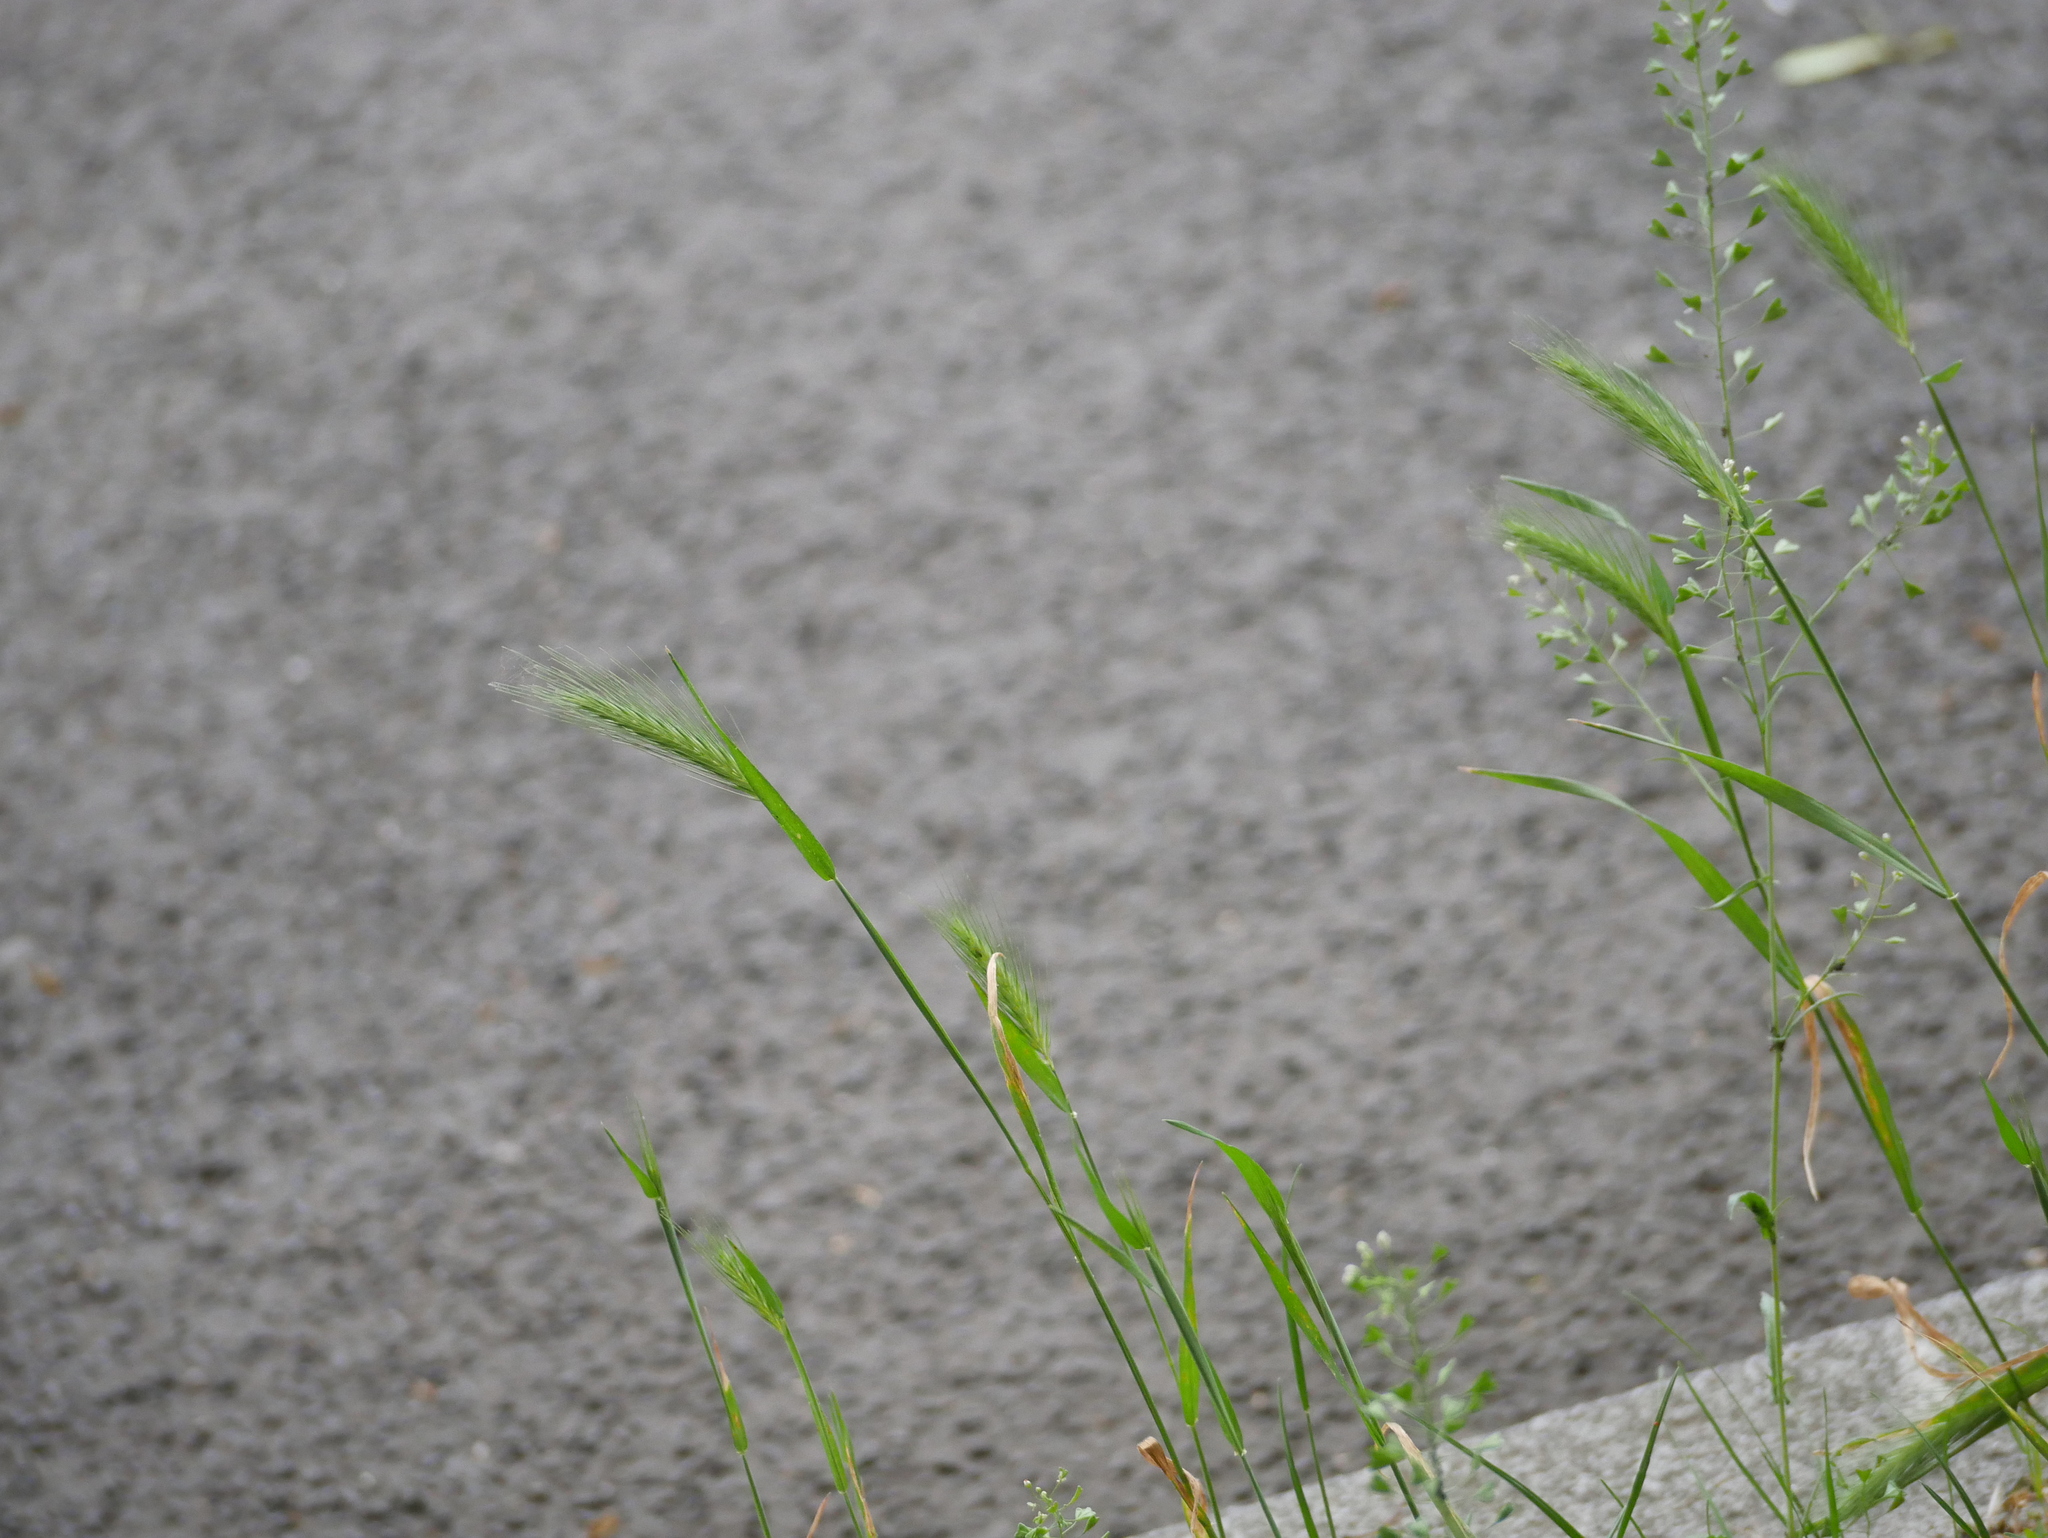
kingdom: Plantae
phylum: Tracheophyta
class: Liliopsida
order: Poales
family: Poaceae
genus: Hordeum
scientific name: Hordeum murinum
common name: Wall barley
